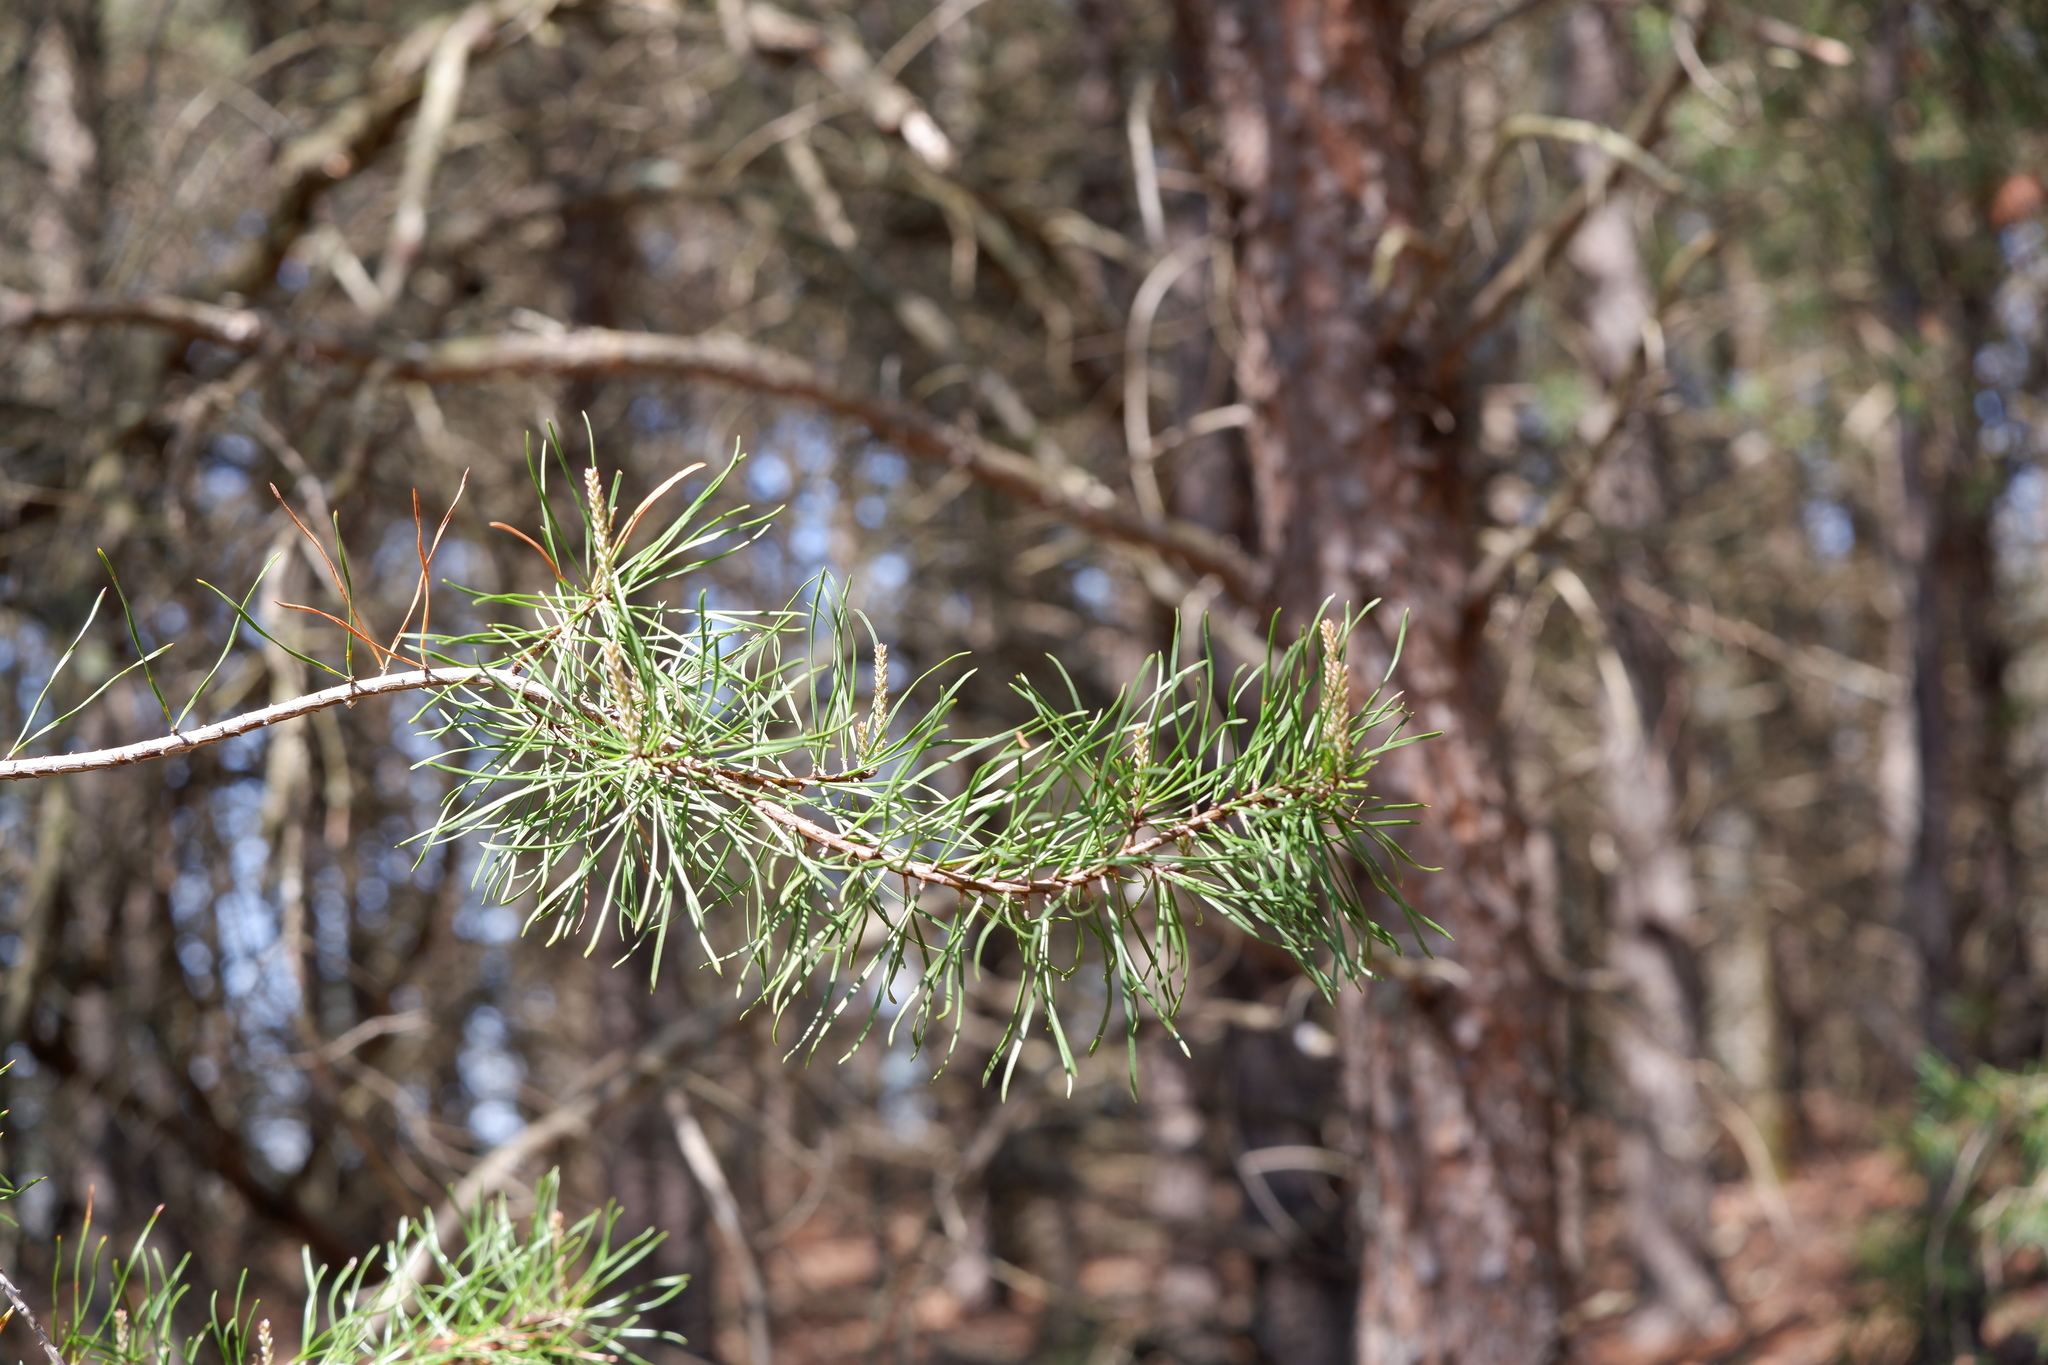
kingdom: Plantae
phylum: Tracheophyta
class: Pinopsida
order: Pinales
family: Pinaceae
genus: Pinus
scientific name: Pinus virginiana
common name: Scrub pine
